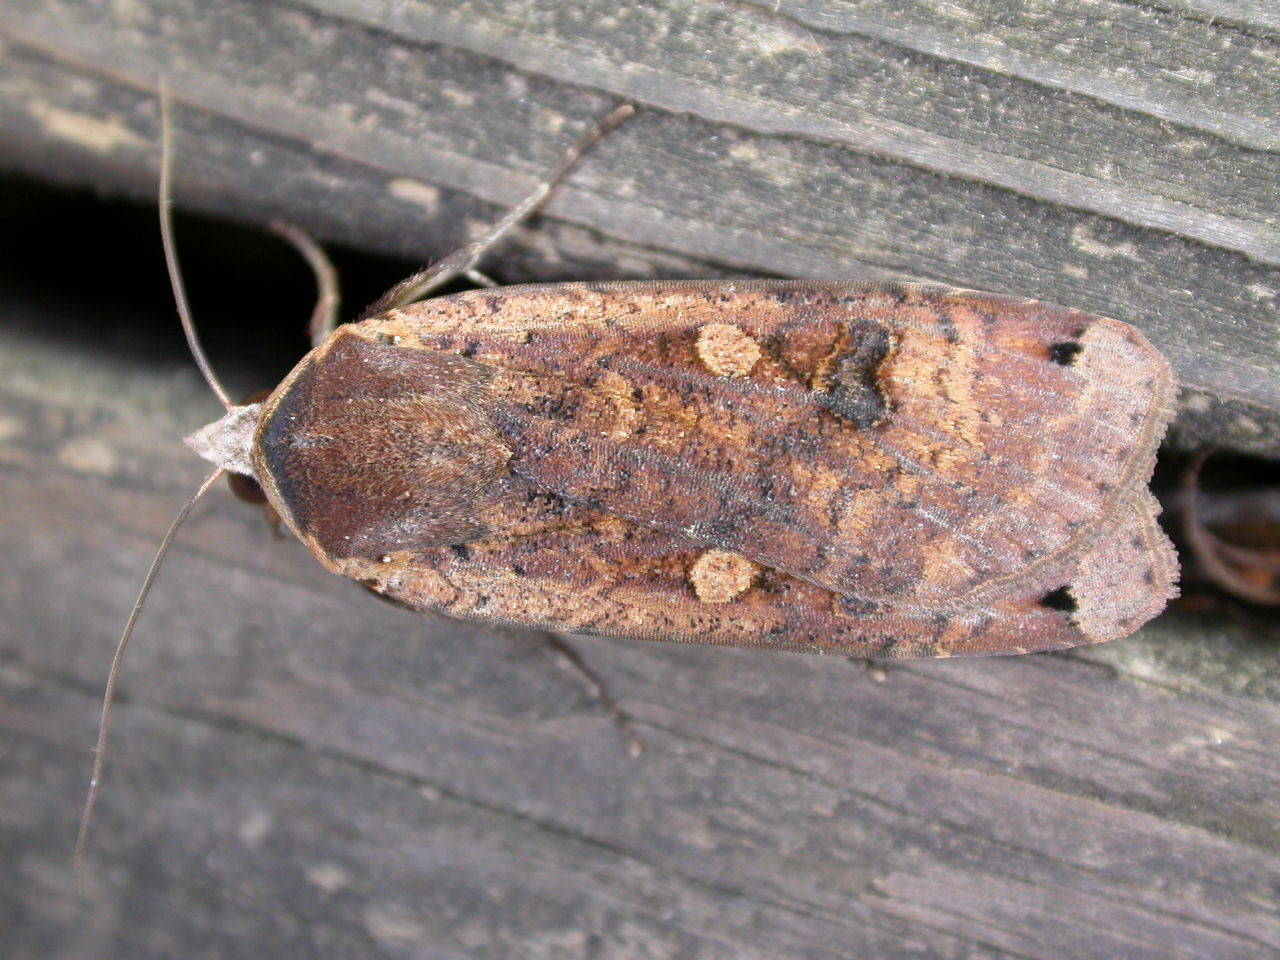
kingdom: Animalia
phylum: Arthropoda
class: Insecta
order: Lepidoptera
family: Noctuidae
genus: Noctua
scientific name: Noctua pronuba
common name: Large yellow underwing
